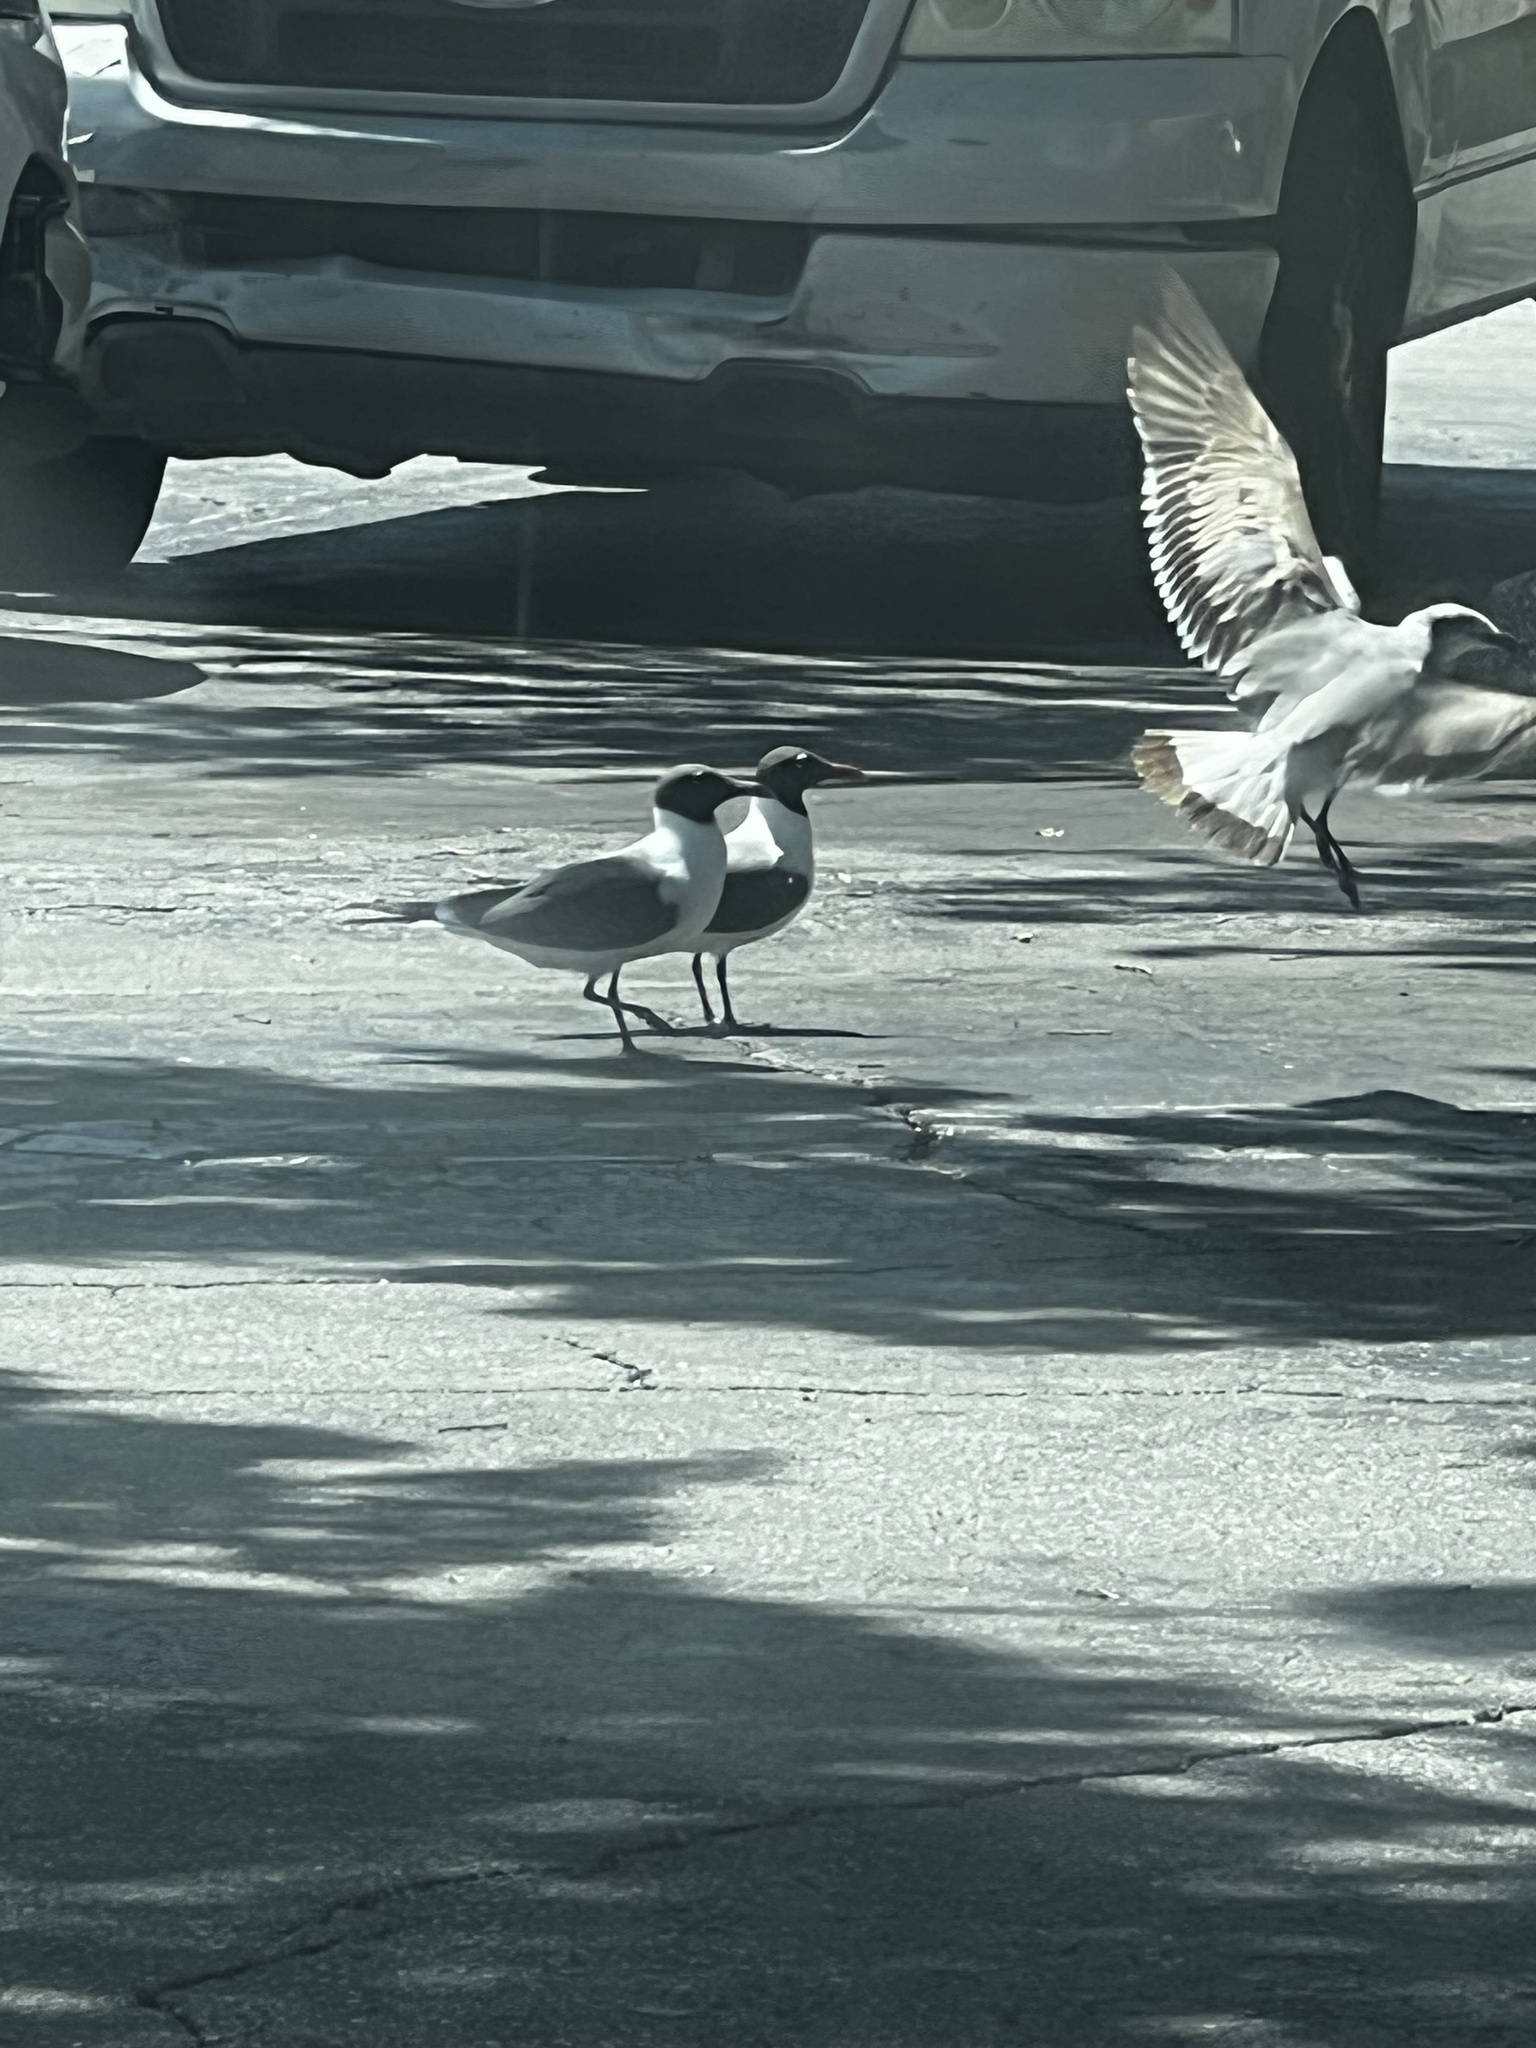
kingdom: Animalia
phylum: Chordata
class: Aves
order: Charadriiformes
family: Laridae
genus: Leucophaeus
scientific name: Leucophaeus atricilla
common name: Laughing gull
